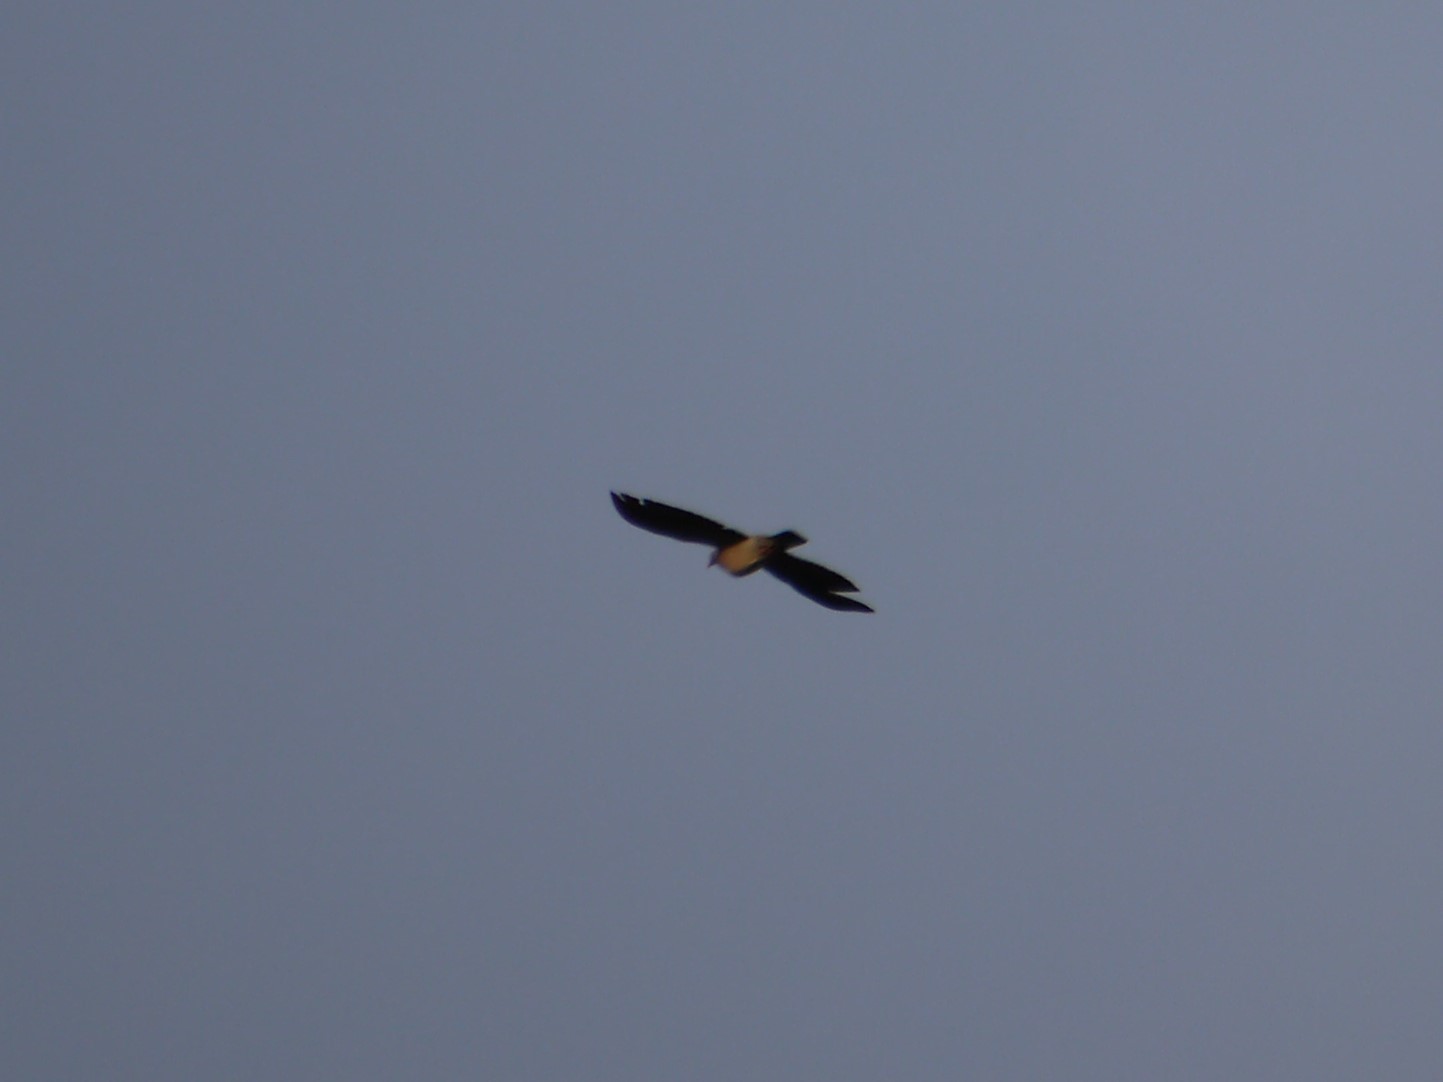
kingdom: Animalia
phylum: Chordata
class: Aves
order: Columbiformes
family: Columbidae
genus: Columba
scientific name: Columba palumbus
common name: Common wood pigeon
